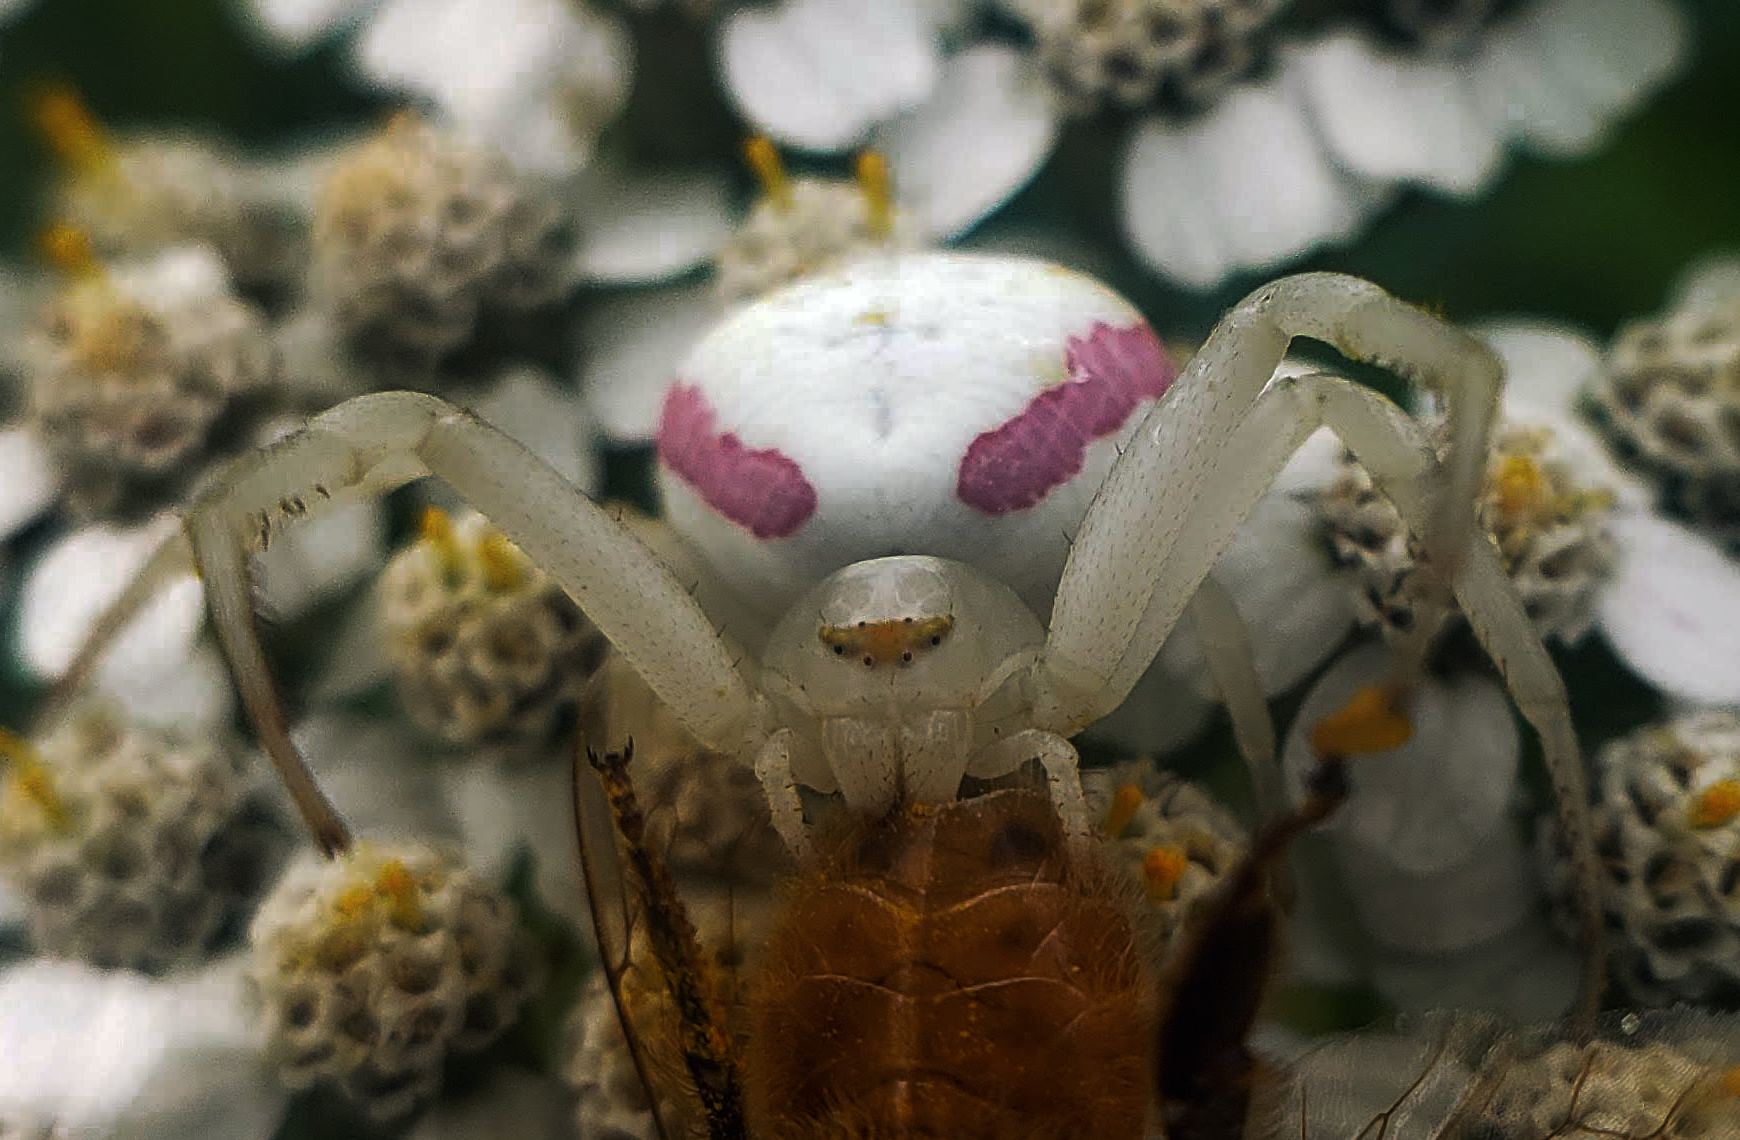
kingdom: Animalia
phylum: Arthropoda
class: Arachnida
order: Araneae
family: Thomisidae
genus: Misumena
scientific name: Misumena vatia
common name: Goldenrod crab spider
